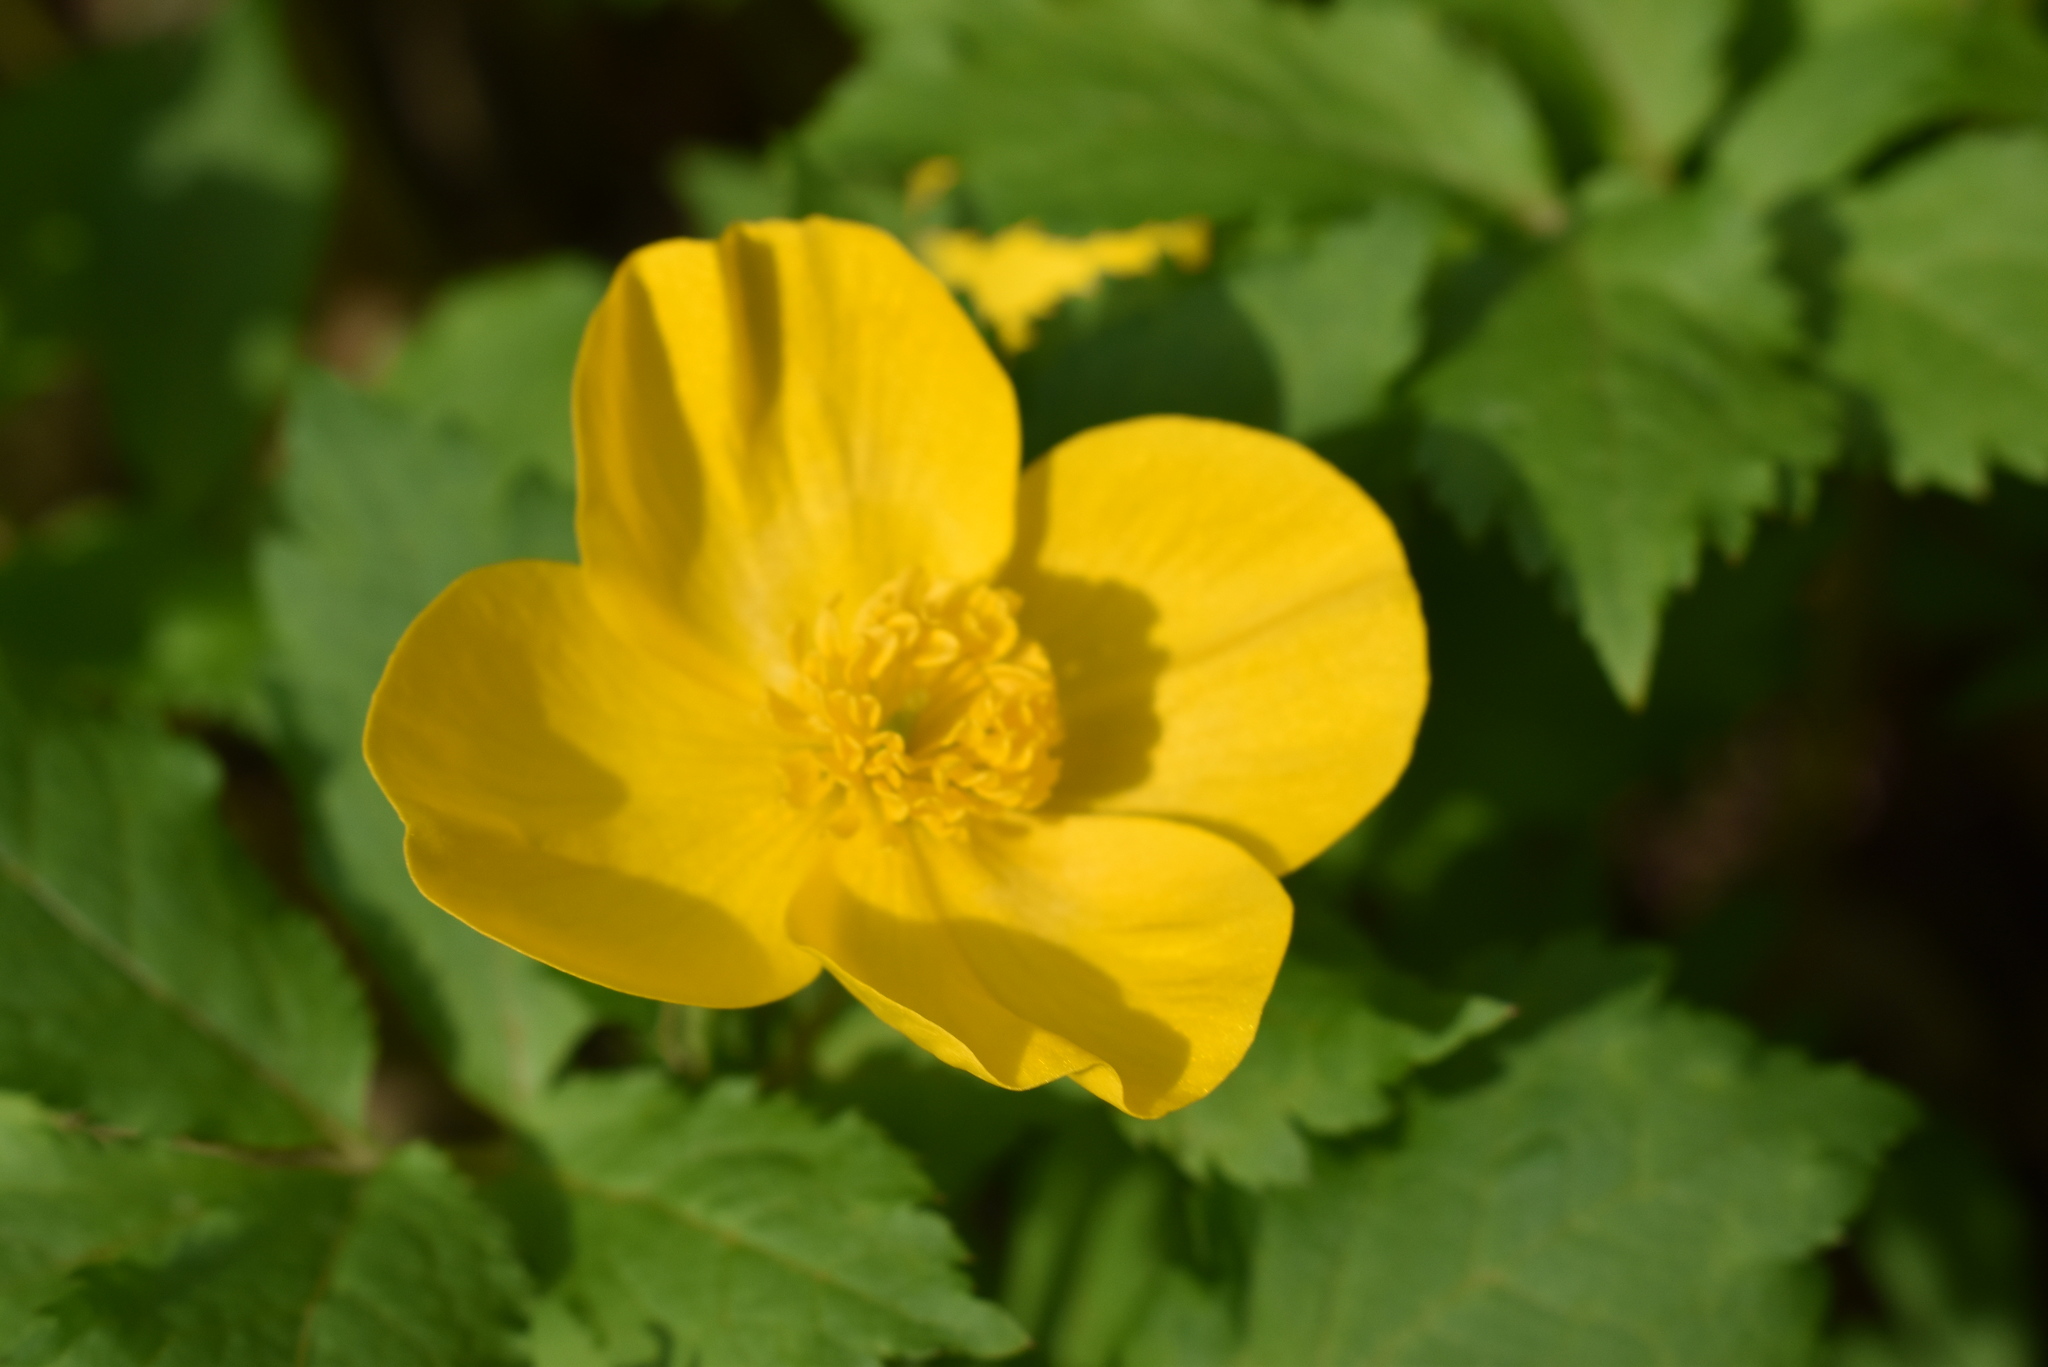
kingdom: Plantae
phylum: Tracheophyta
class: Magnoliopsida
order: Ranunculales
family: Papaveraceae
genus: Hylomecon
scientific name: Hylomecon japonicum
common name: Forest-poppy
